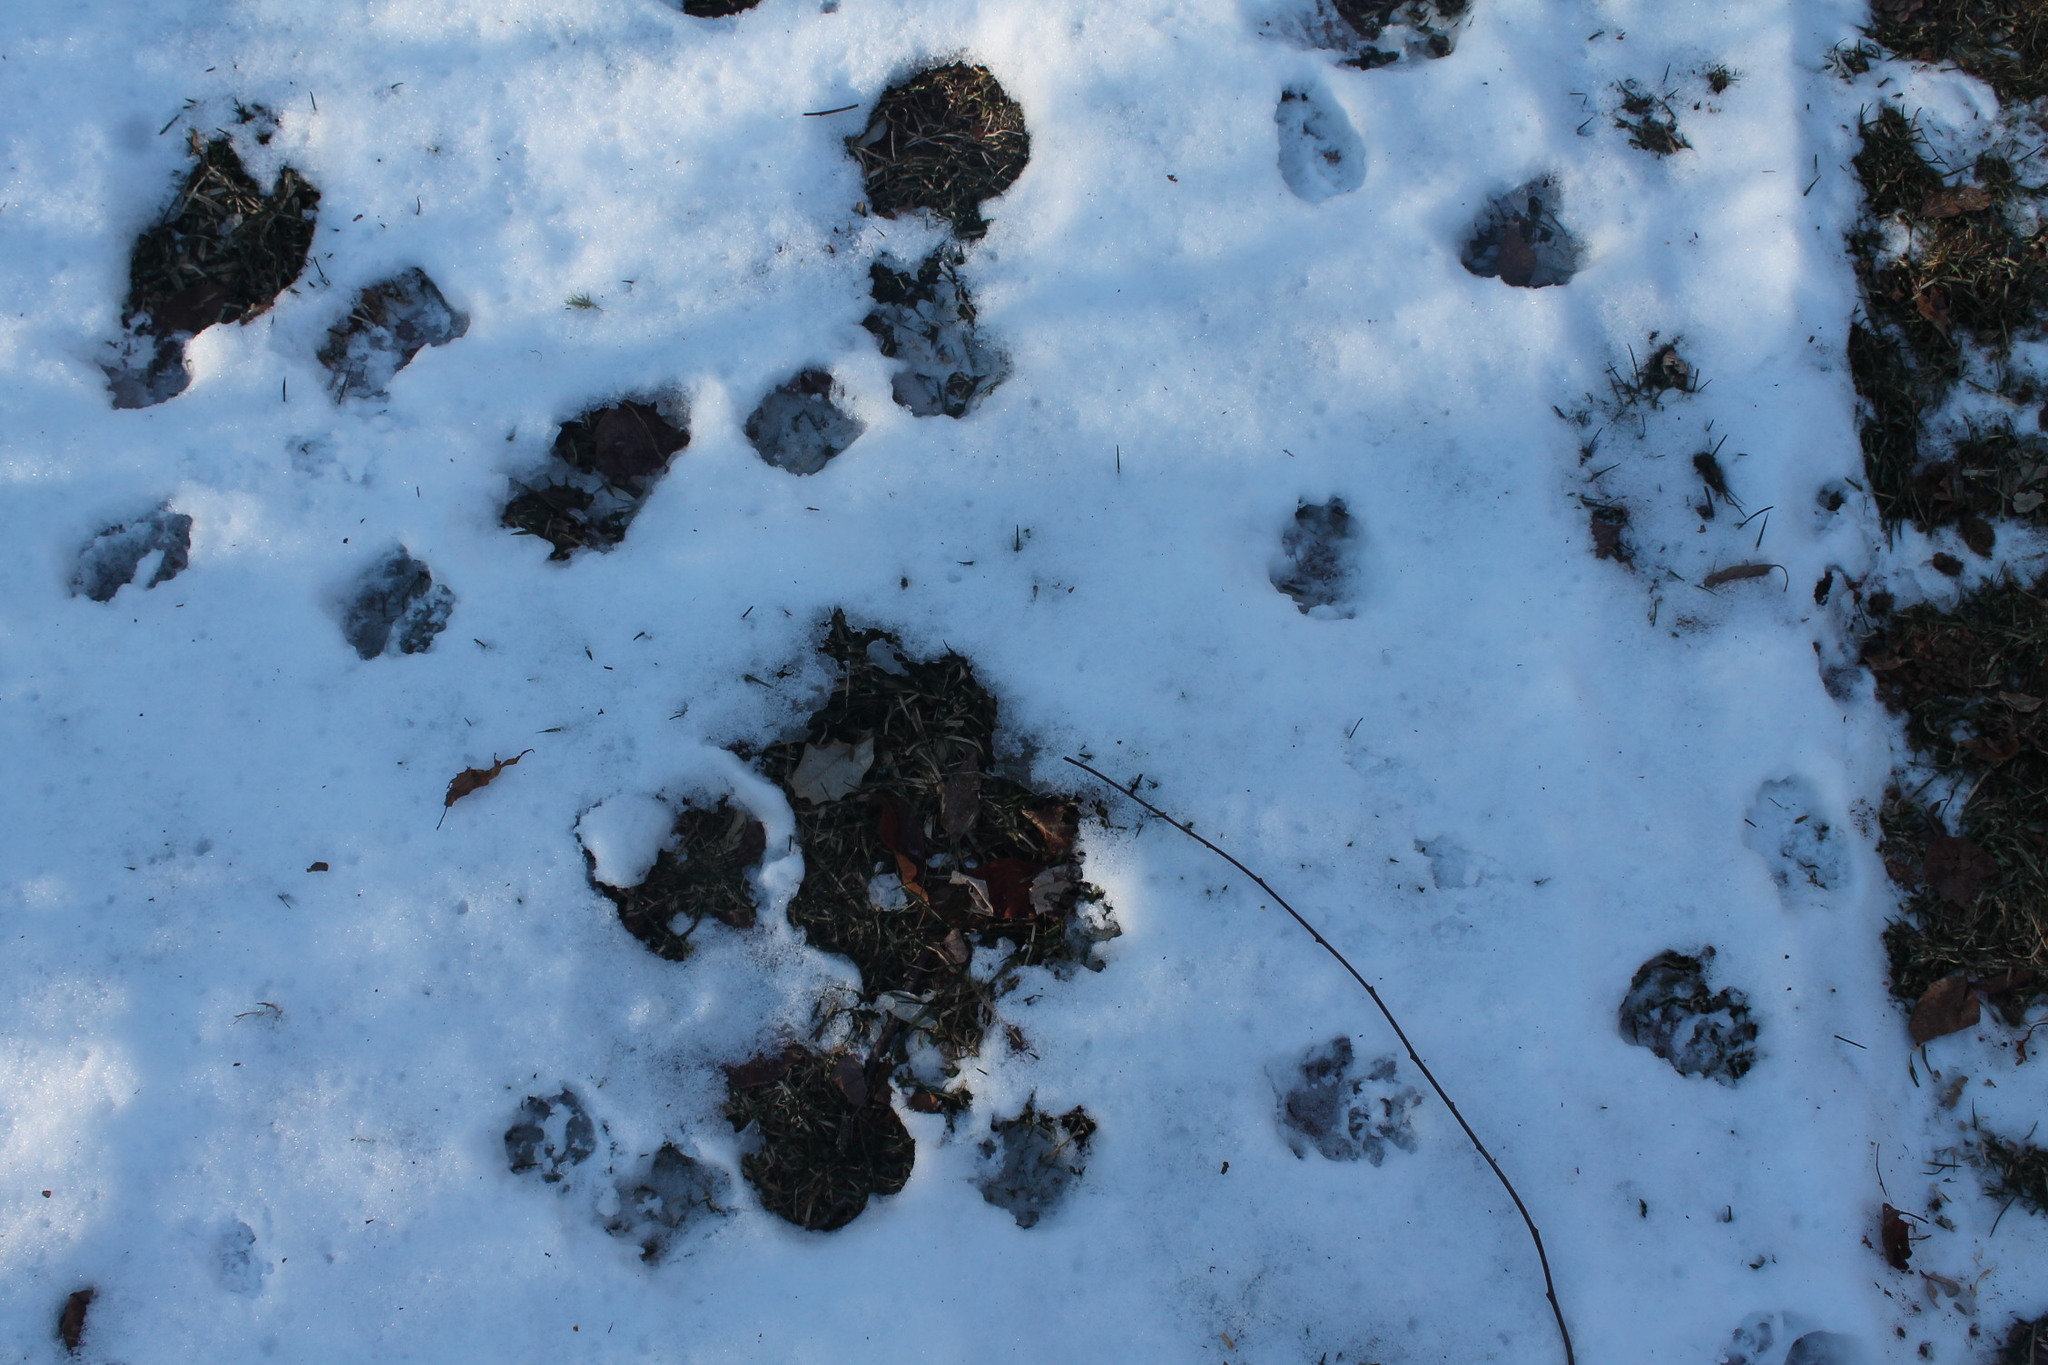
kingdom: Animalia
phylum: Chordata
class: Mammalia
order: Didelphimorphia
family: Didelphidae
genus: Didelphis
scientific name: Didelphis virginiana
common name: Virginia opossum
